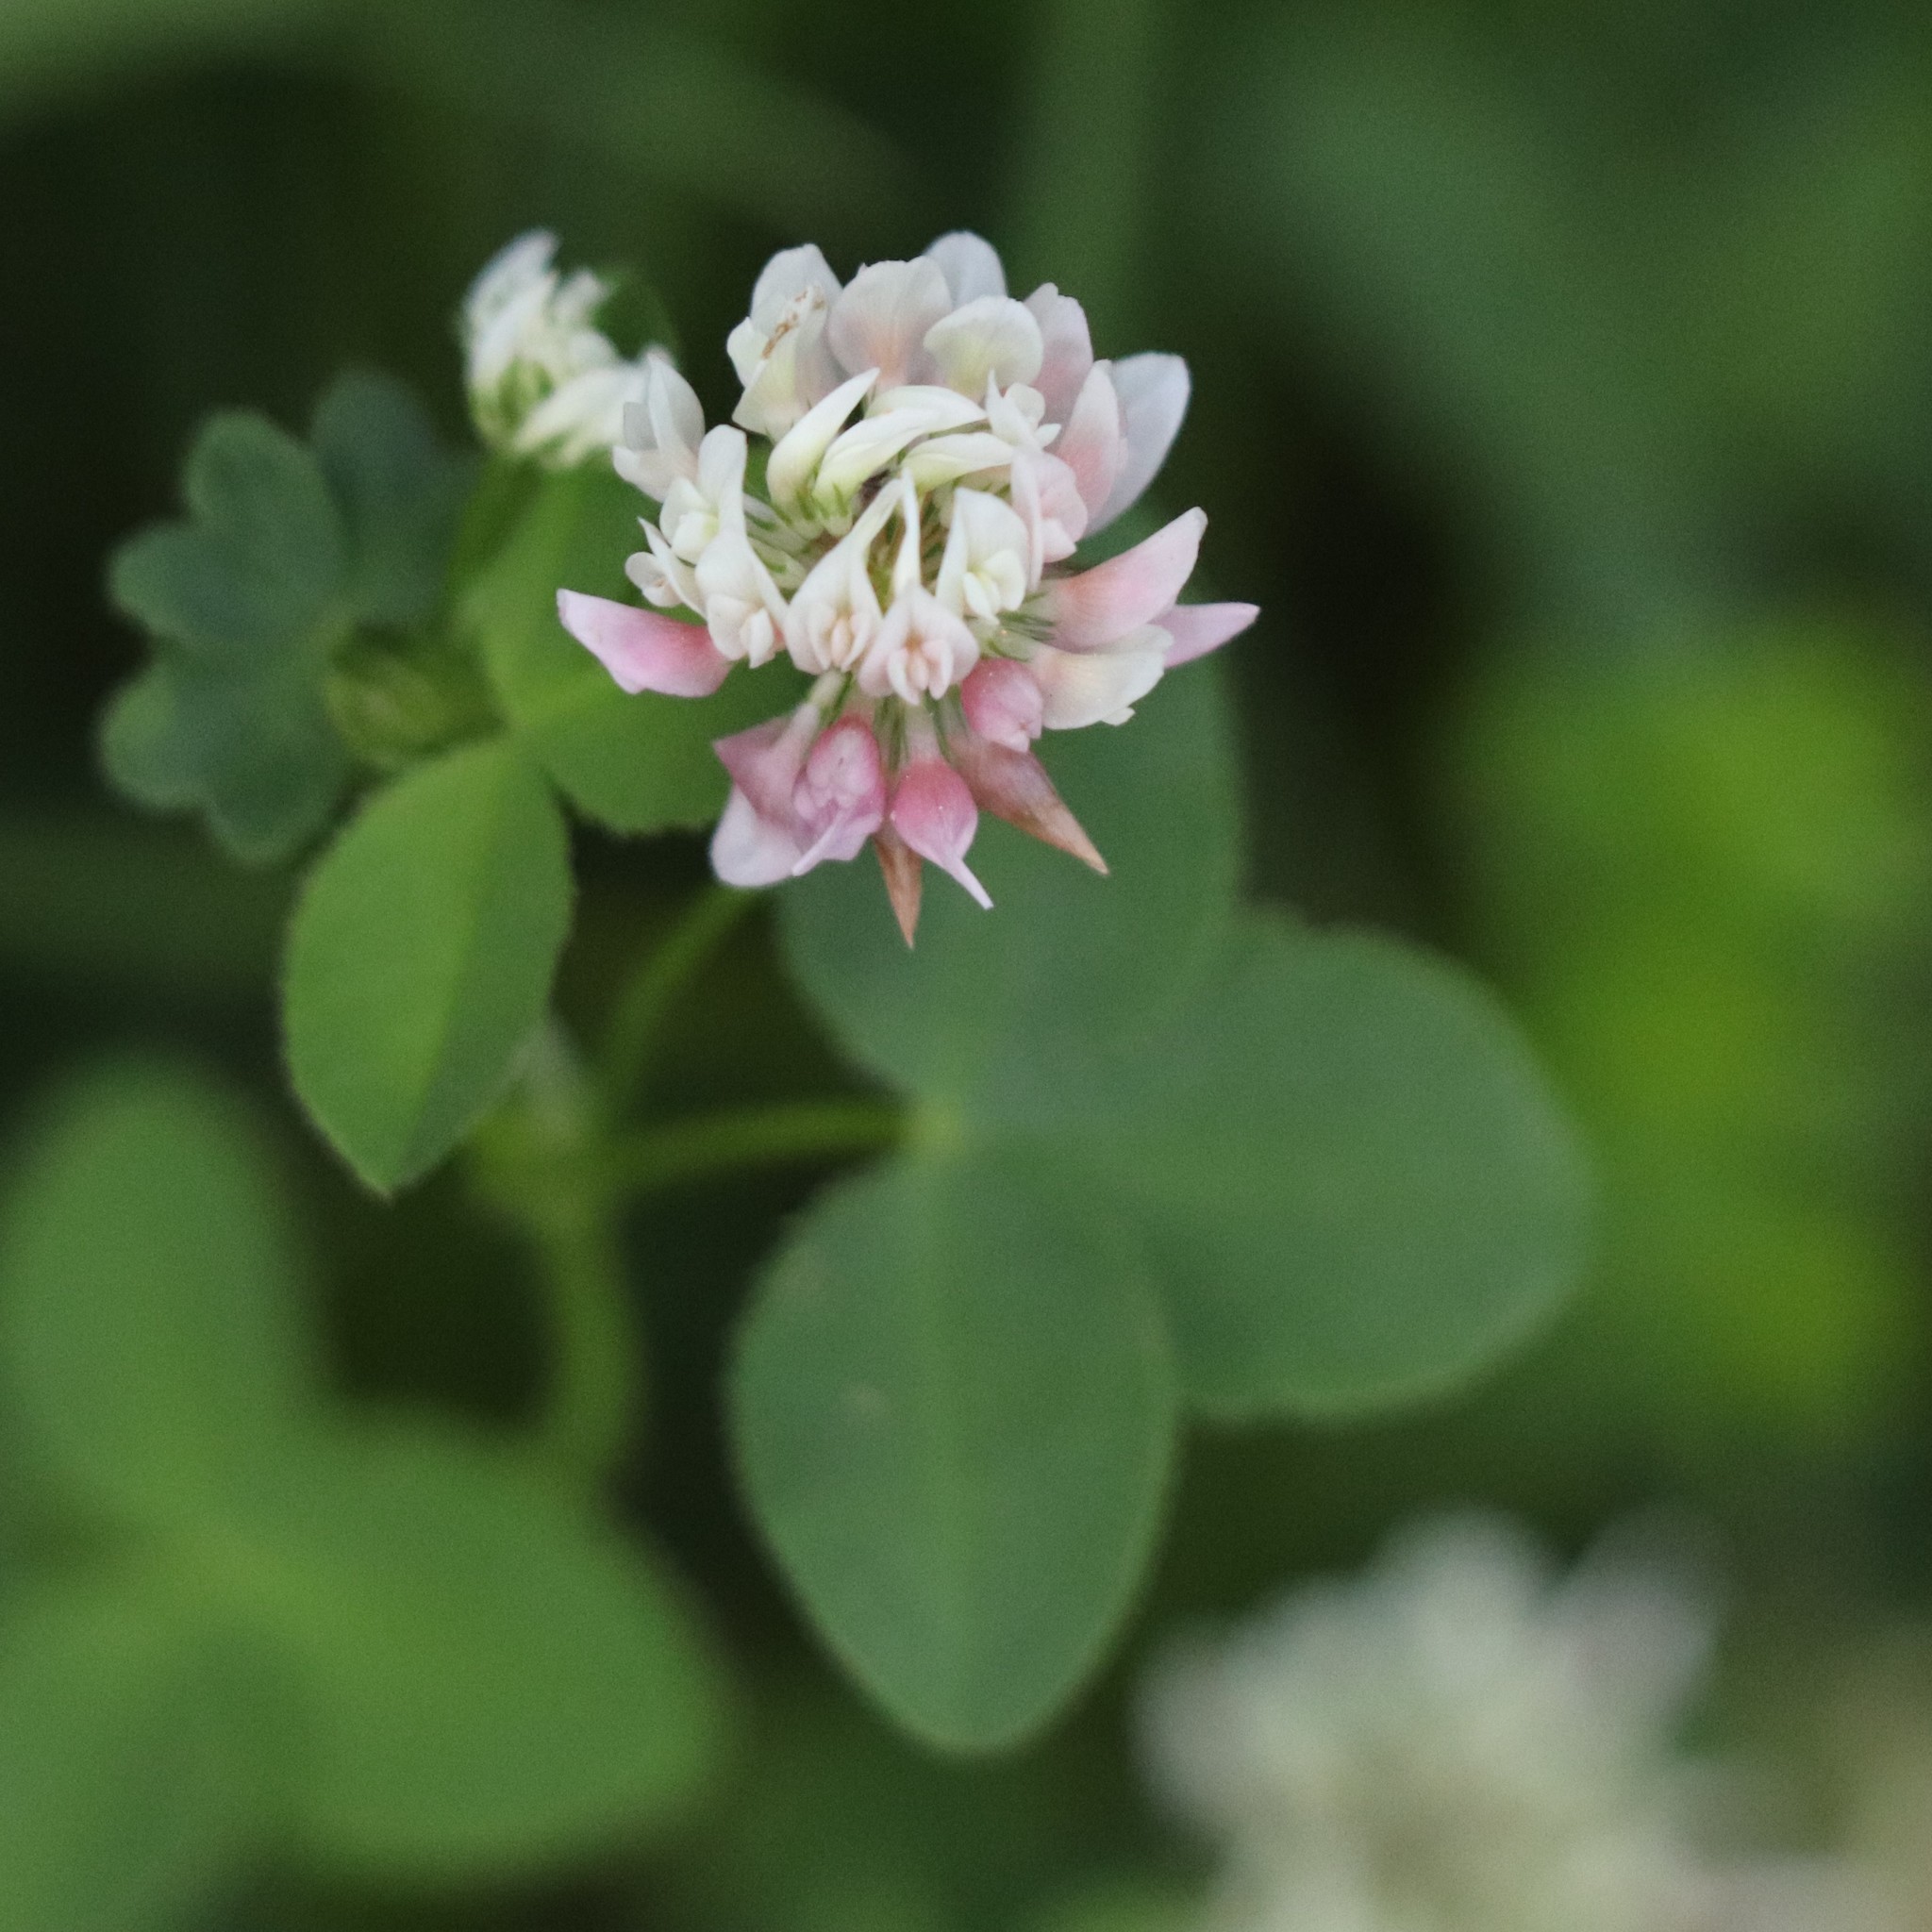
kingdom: Plantae
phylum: Tracheophyta
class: Magnoliopsida
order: Fabales
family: Fabaceae
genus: Trifolium
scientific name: Trifolium hybridum
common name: Alsike clover
